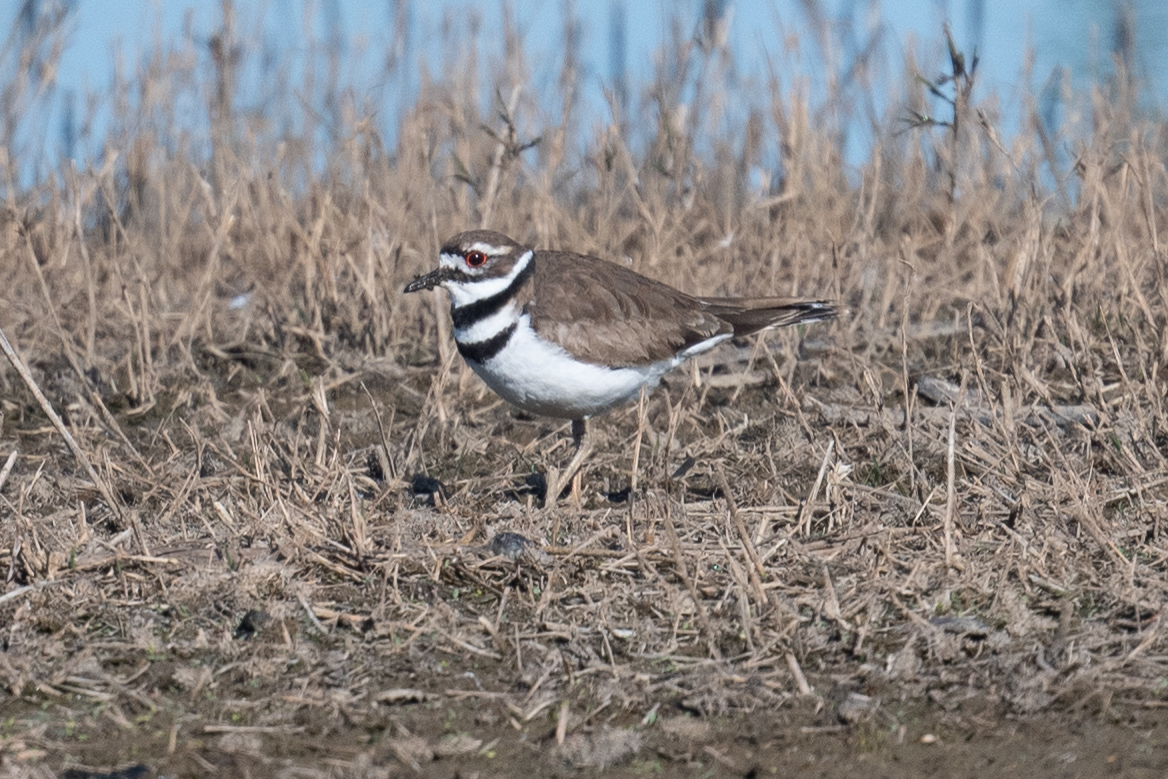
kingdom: Animalia
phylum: Chordata
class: Aves
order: Charadriiformes
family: Charadriidae
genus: Charadrius
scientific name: Charadrius vociferus
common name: Killdeer
